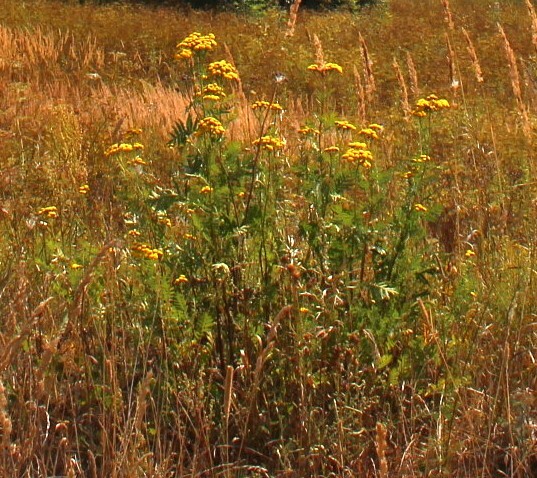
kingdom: Plantae
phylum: Tracheophyta
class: Magnoliopsida
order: Asterales
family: Asteraceae
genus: Tanacetum
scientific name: Tanacetum vulgare
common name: Common tansy
